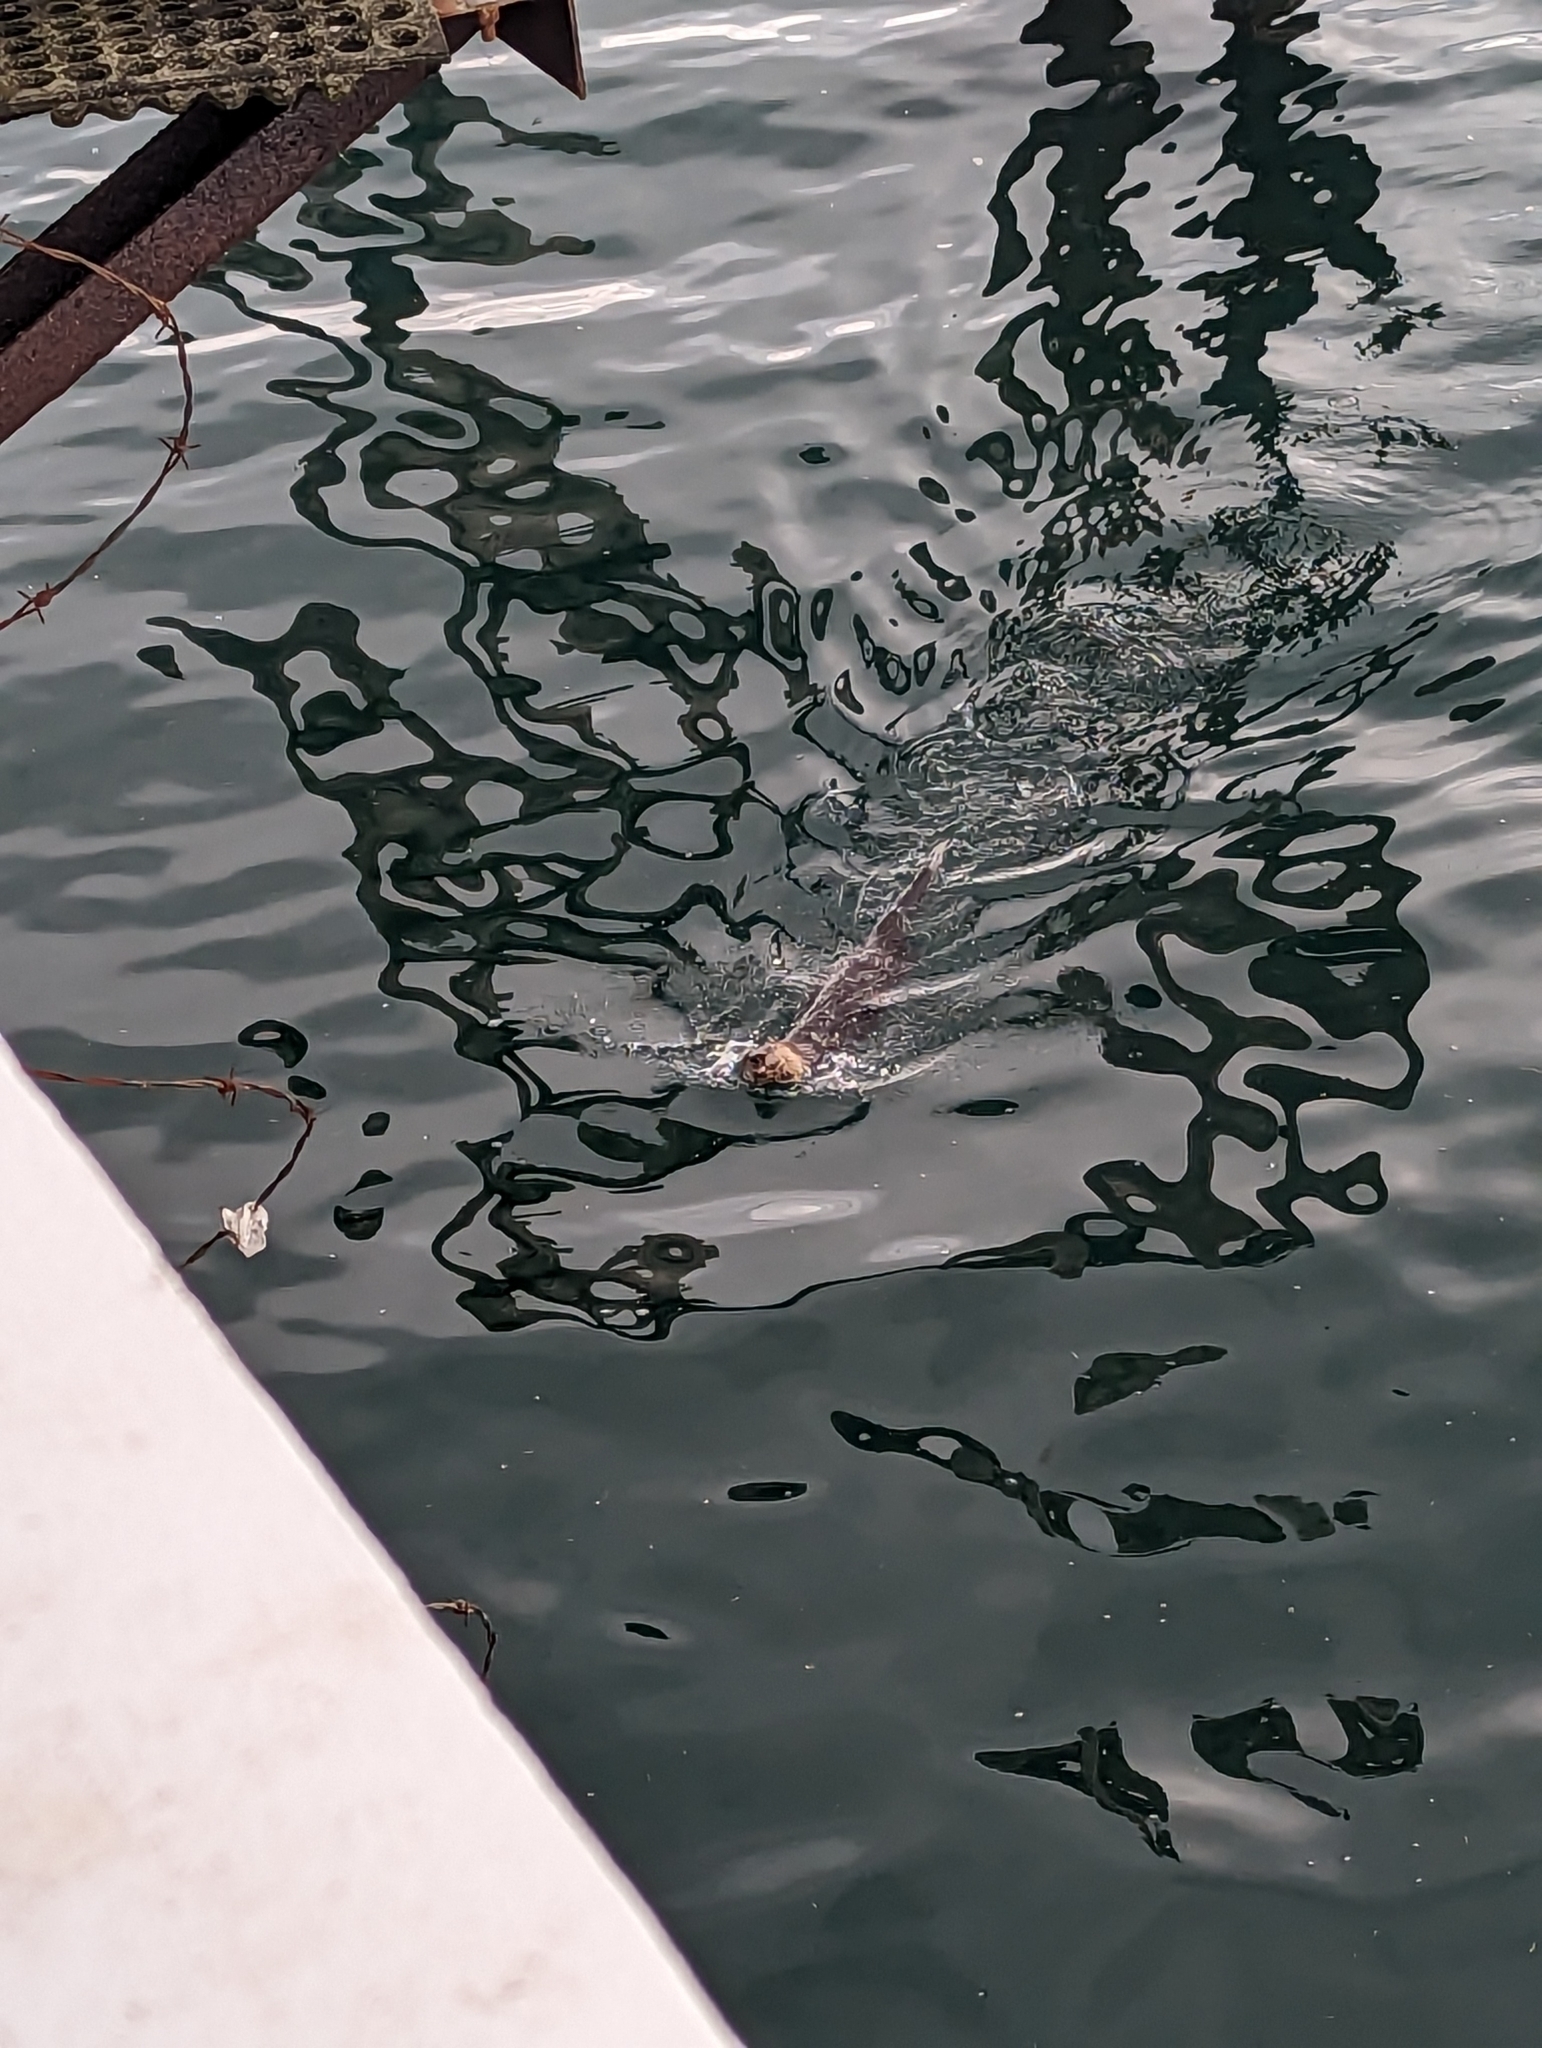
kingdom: Animalia
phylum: Chordata
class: Mammalia
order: Carnivora
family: Mustelidae
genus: Lontra
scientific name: Lontra canadensis
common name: North american river otter
